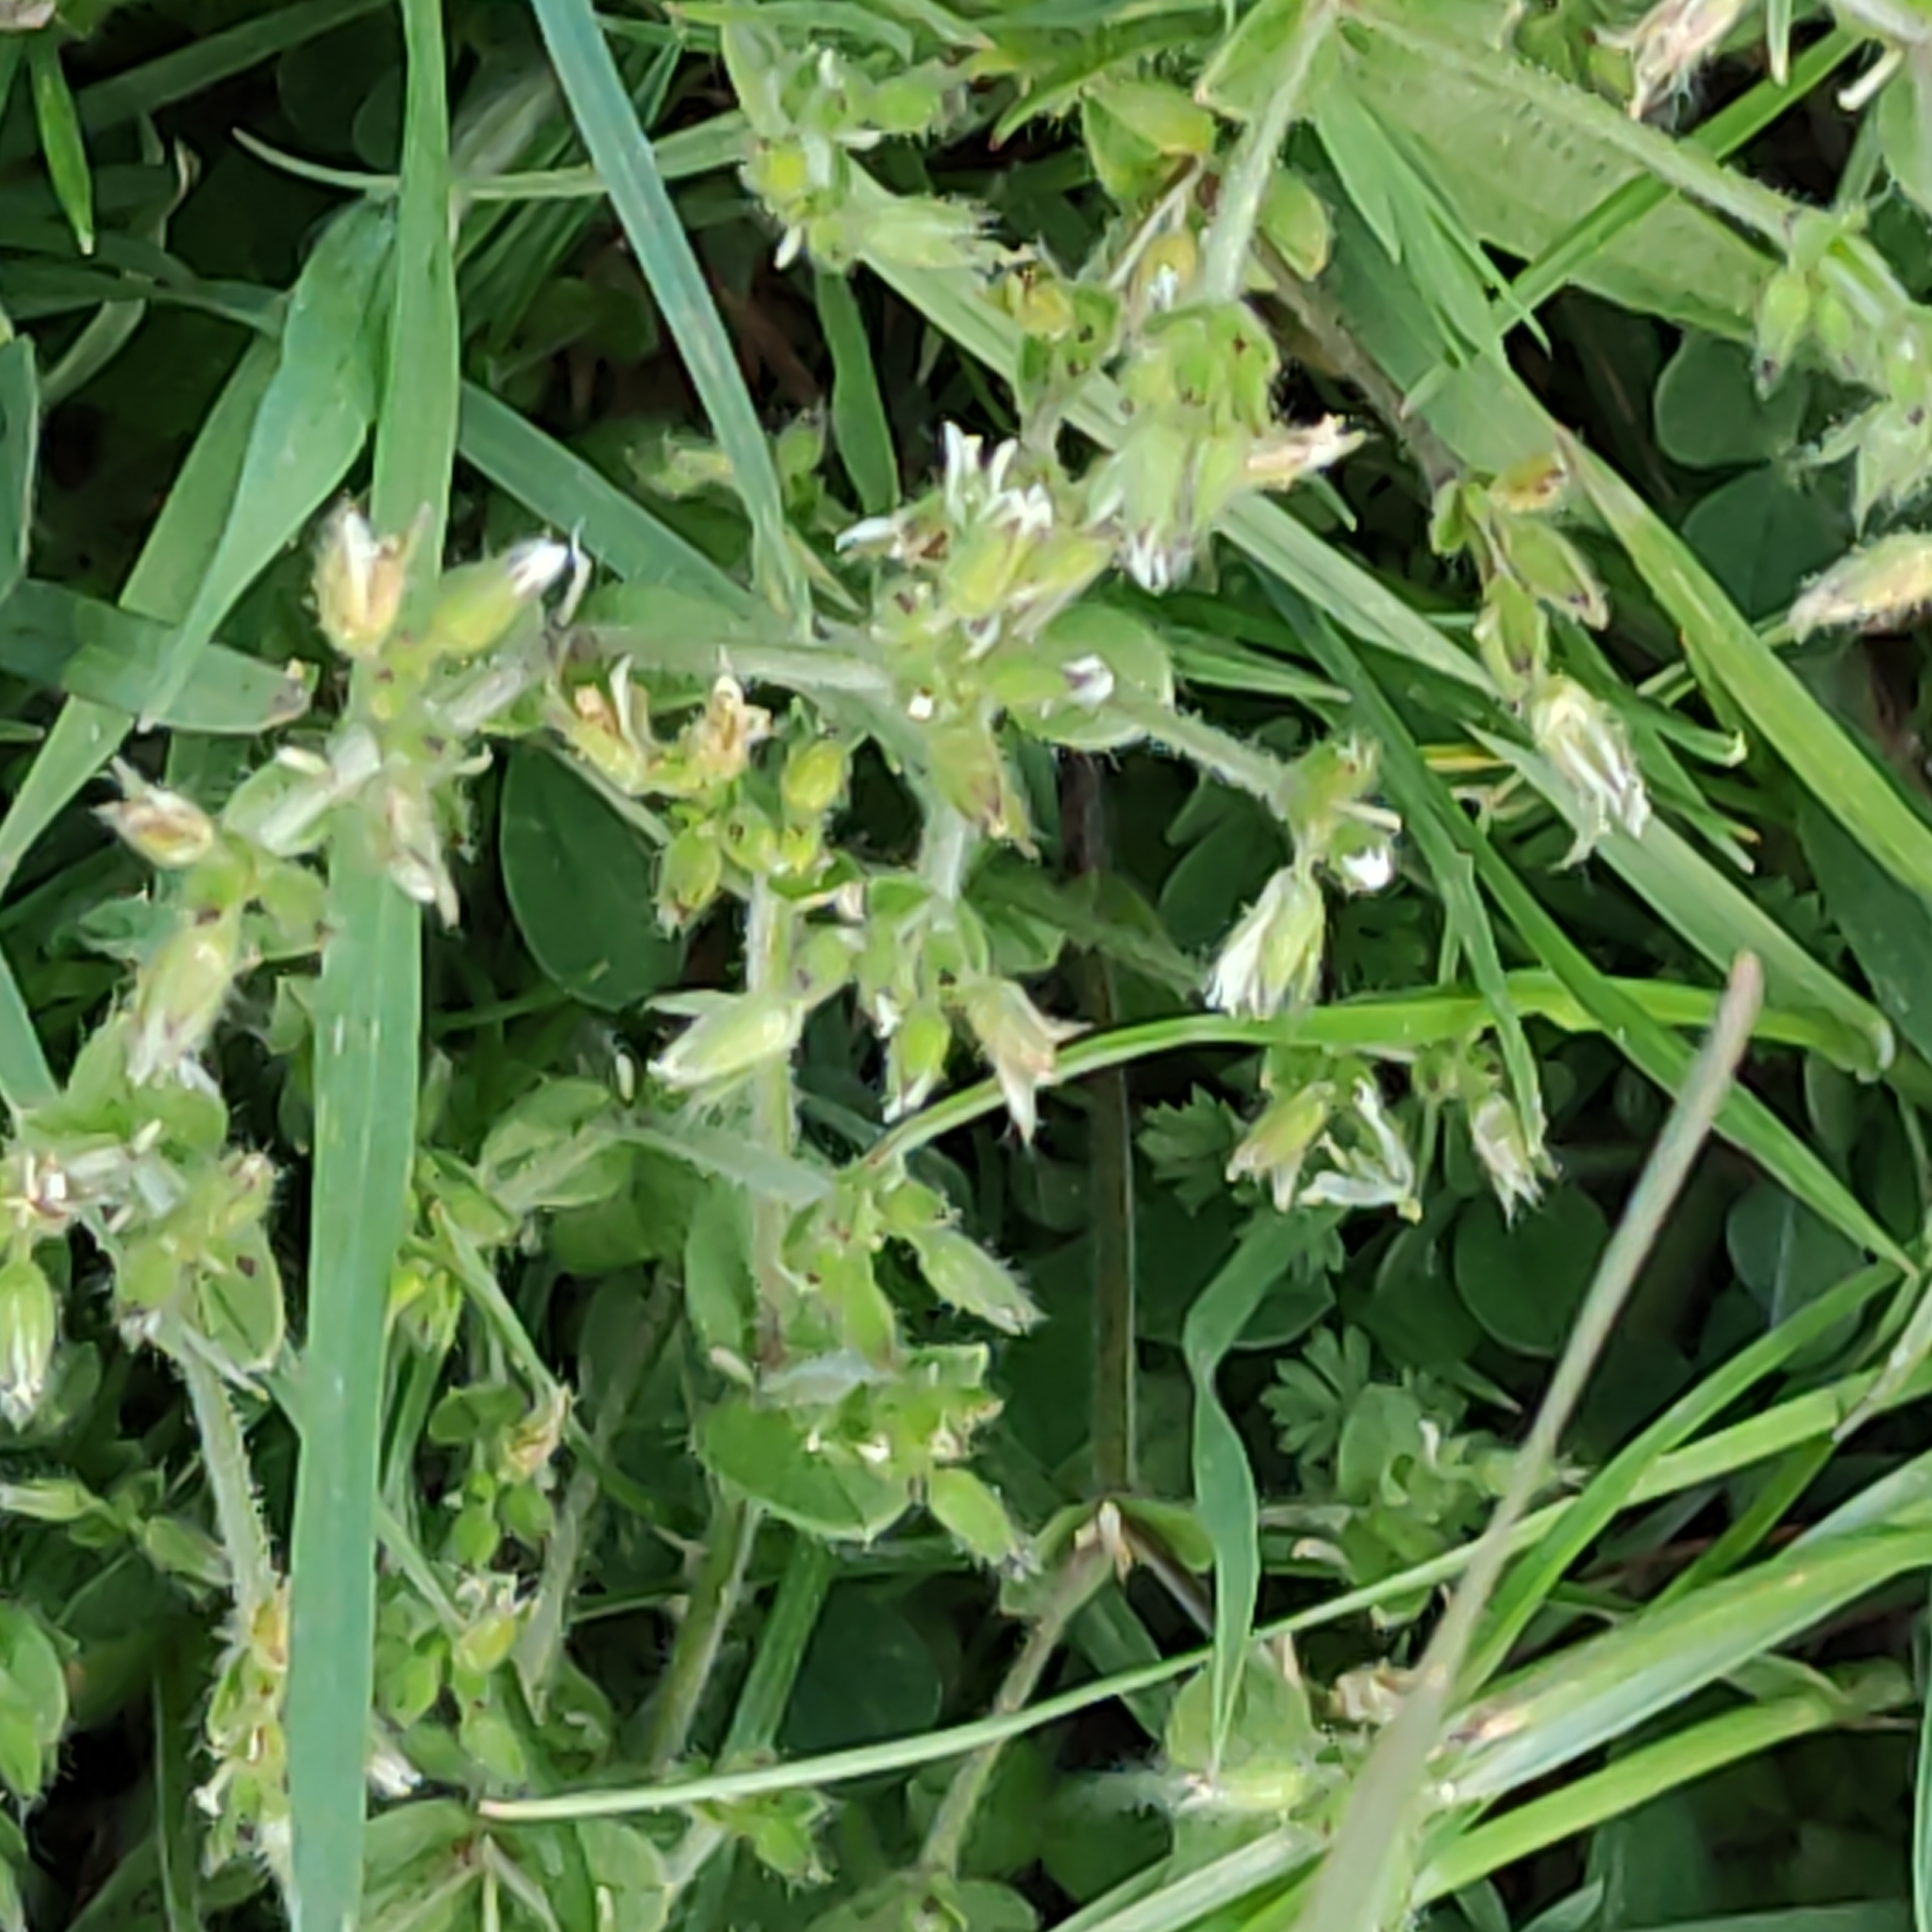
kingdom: Plantae
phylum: Tracheophyta
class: Magnoliopsida
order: Caryophyllales
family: Caryophyllaceae
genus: Cerastium
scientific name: Cerastium glomeratum
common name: Sticky chickweed
